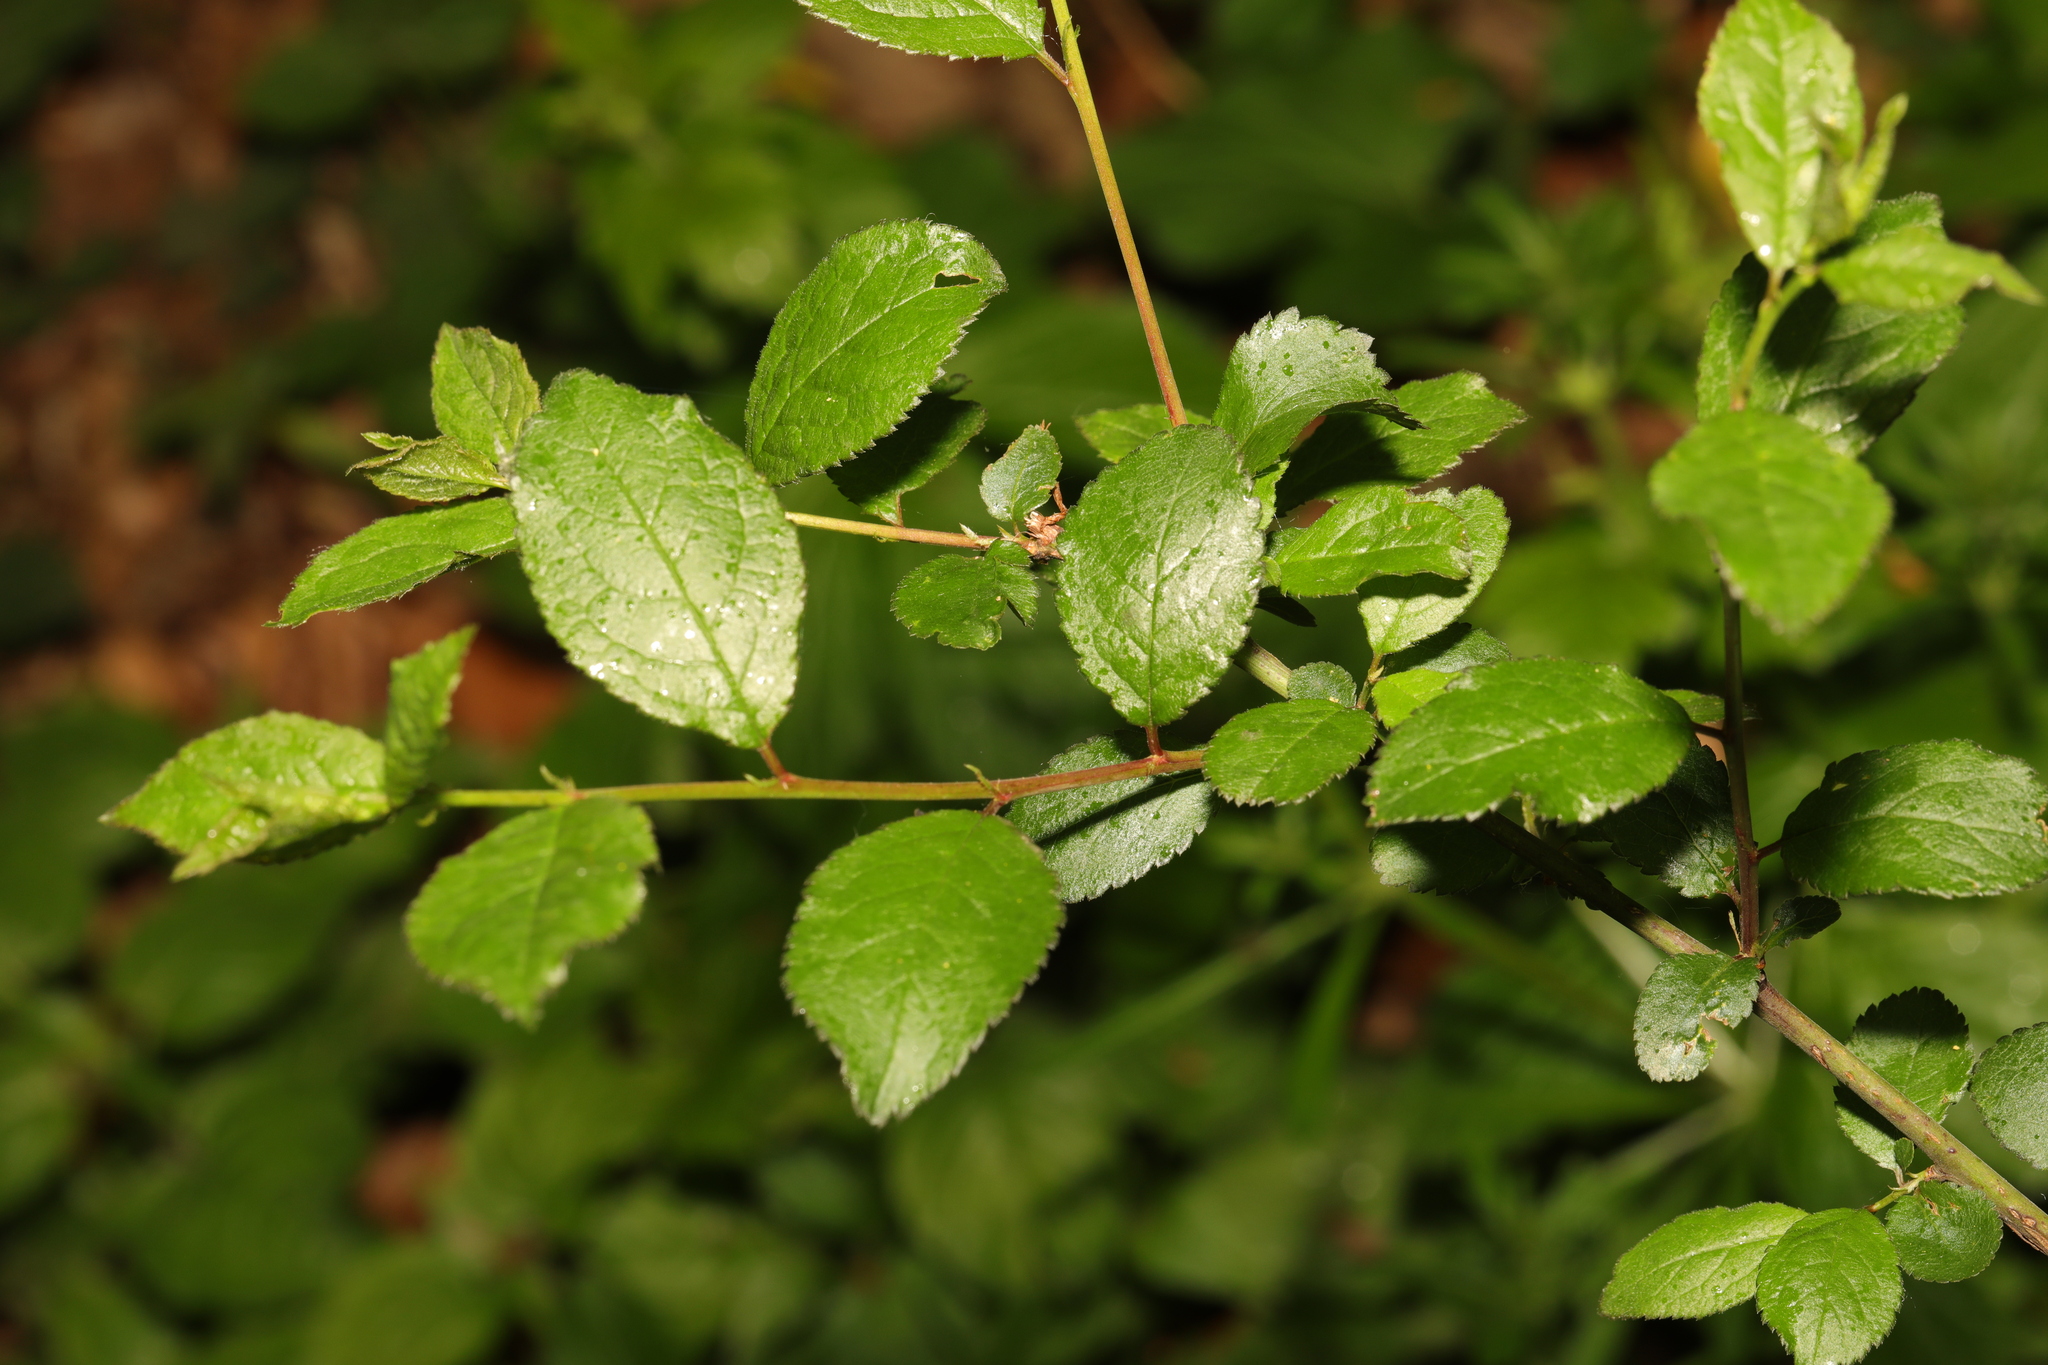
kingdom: Plantae
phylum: Tracheophyta
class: Magnoliopsida
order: Rosales
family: Rosaceae
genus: Prunus
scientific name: Prunus spinosa
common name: Blackthorn
